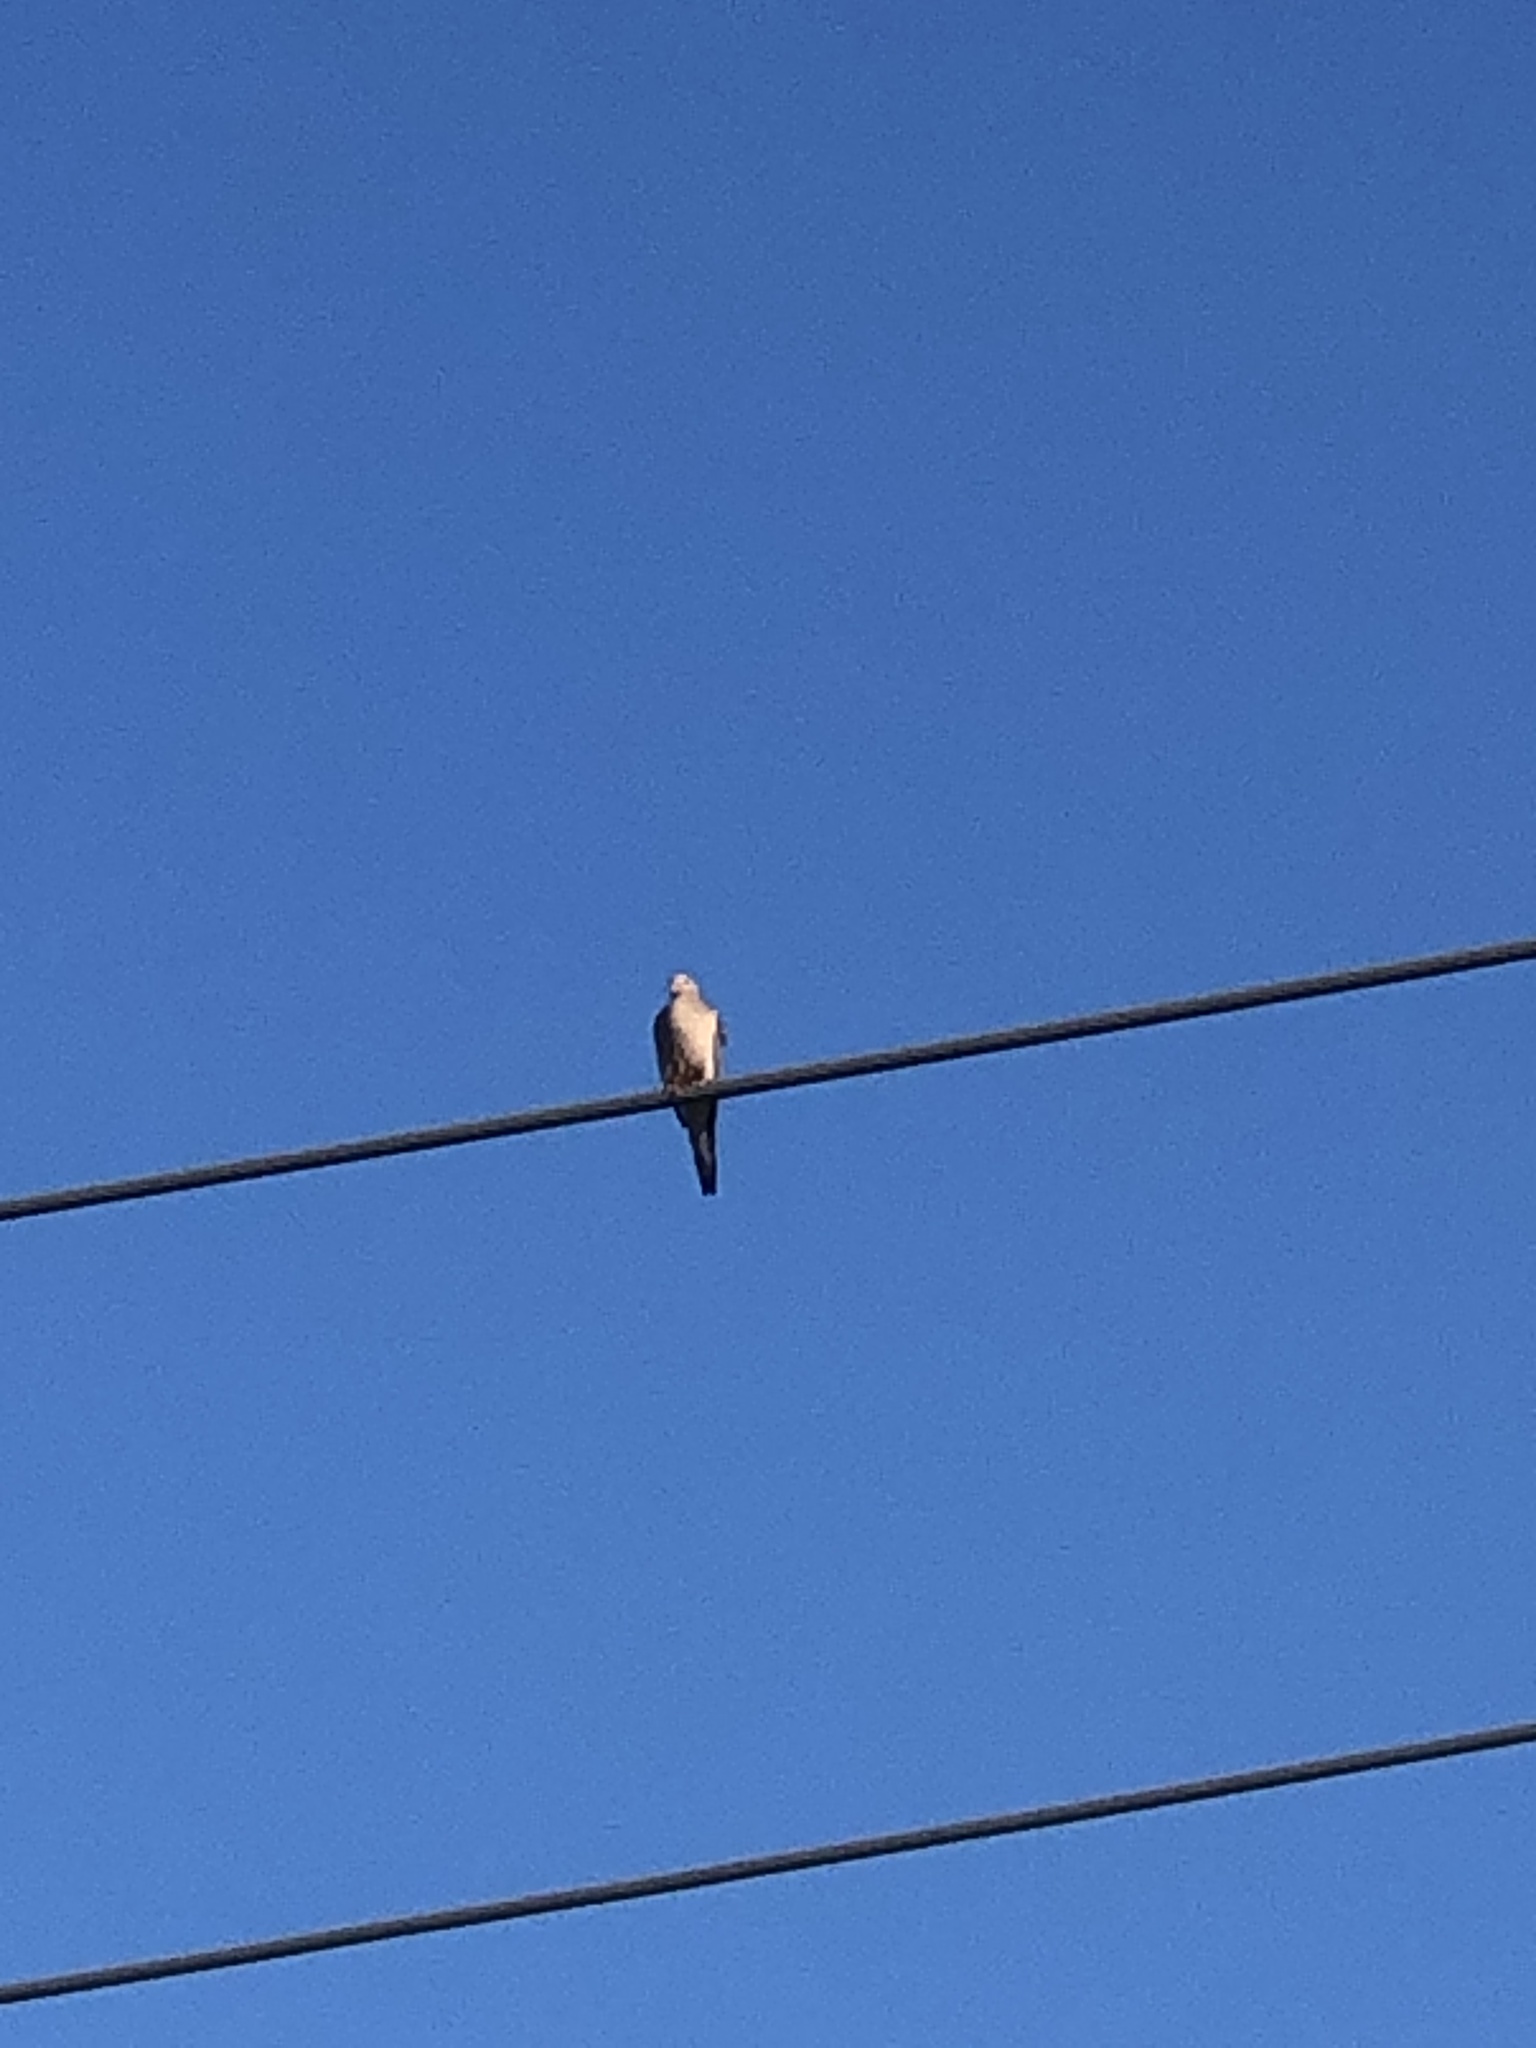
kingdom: Animalia
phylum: Chordata
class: Aves
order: Columbiformes
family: Columbidae
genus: Zenaida
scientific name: Zenaida macroura
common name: Mourning dove
